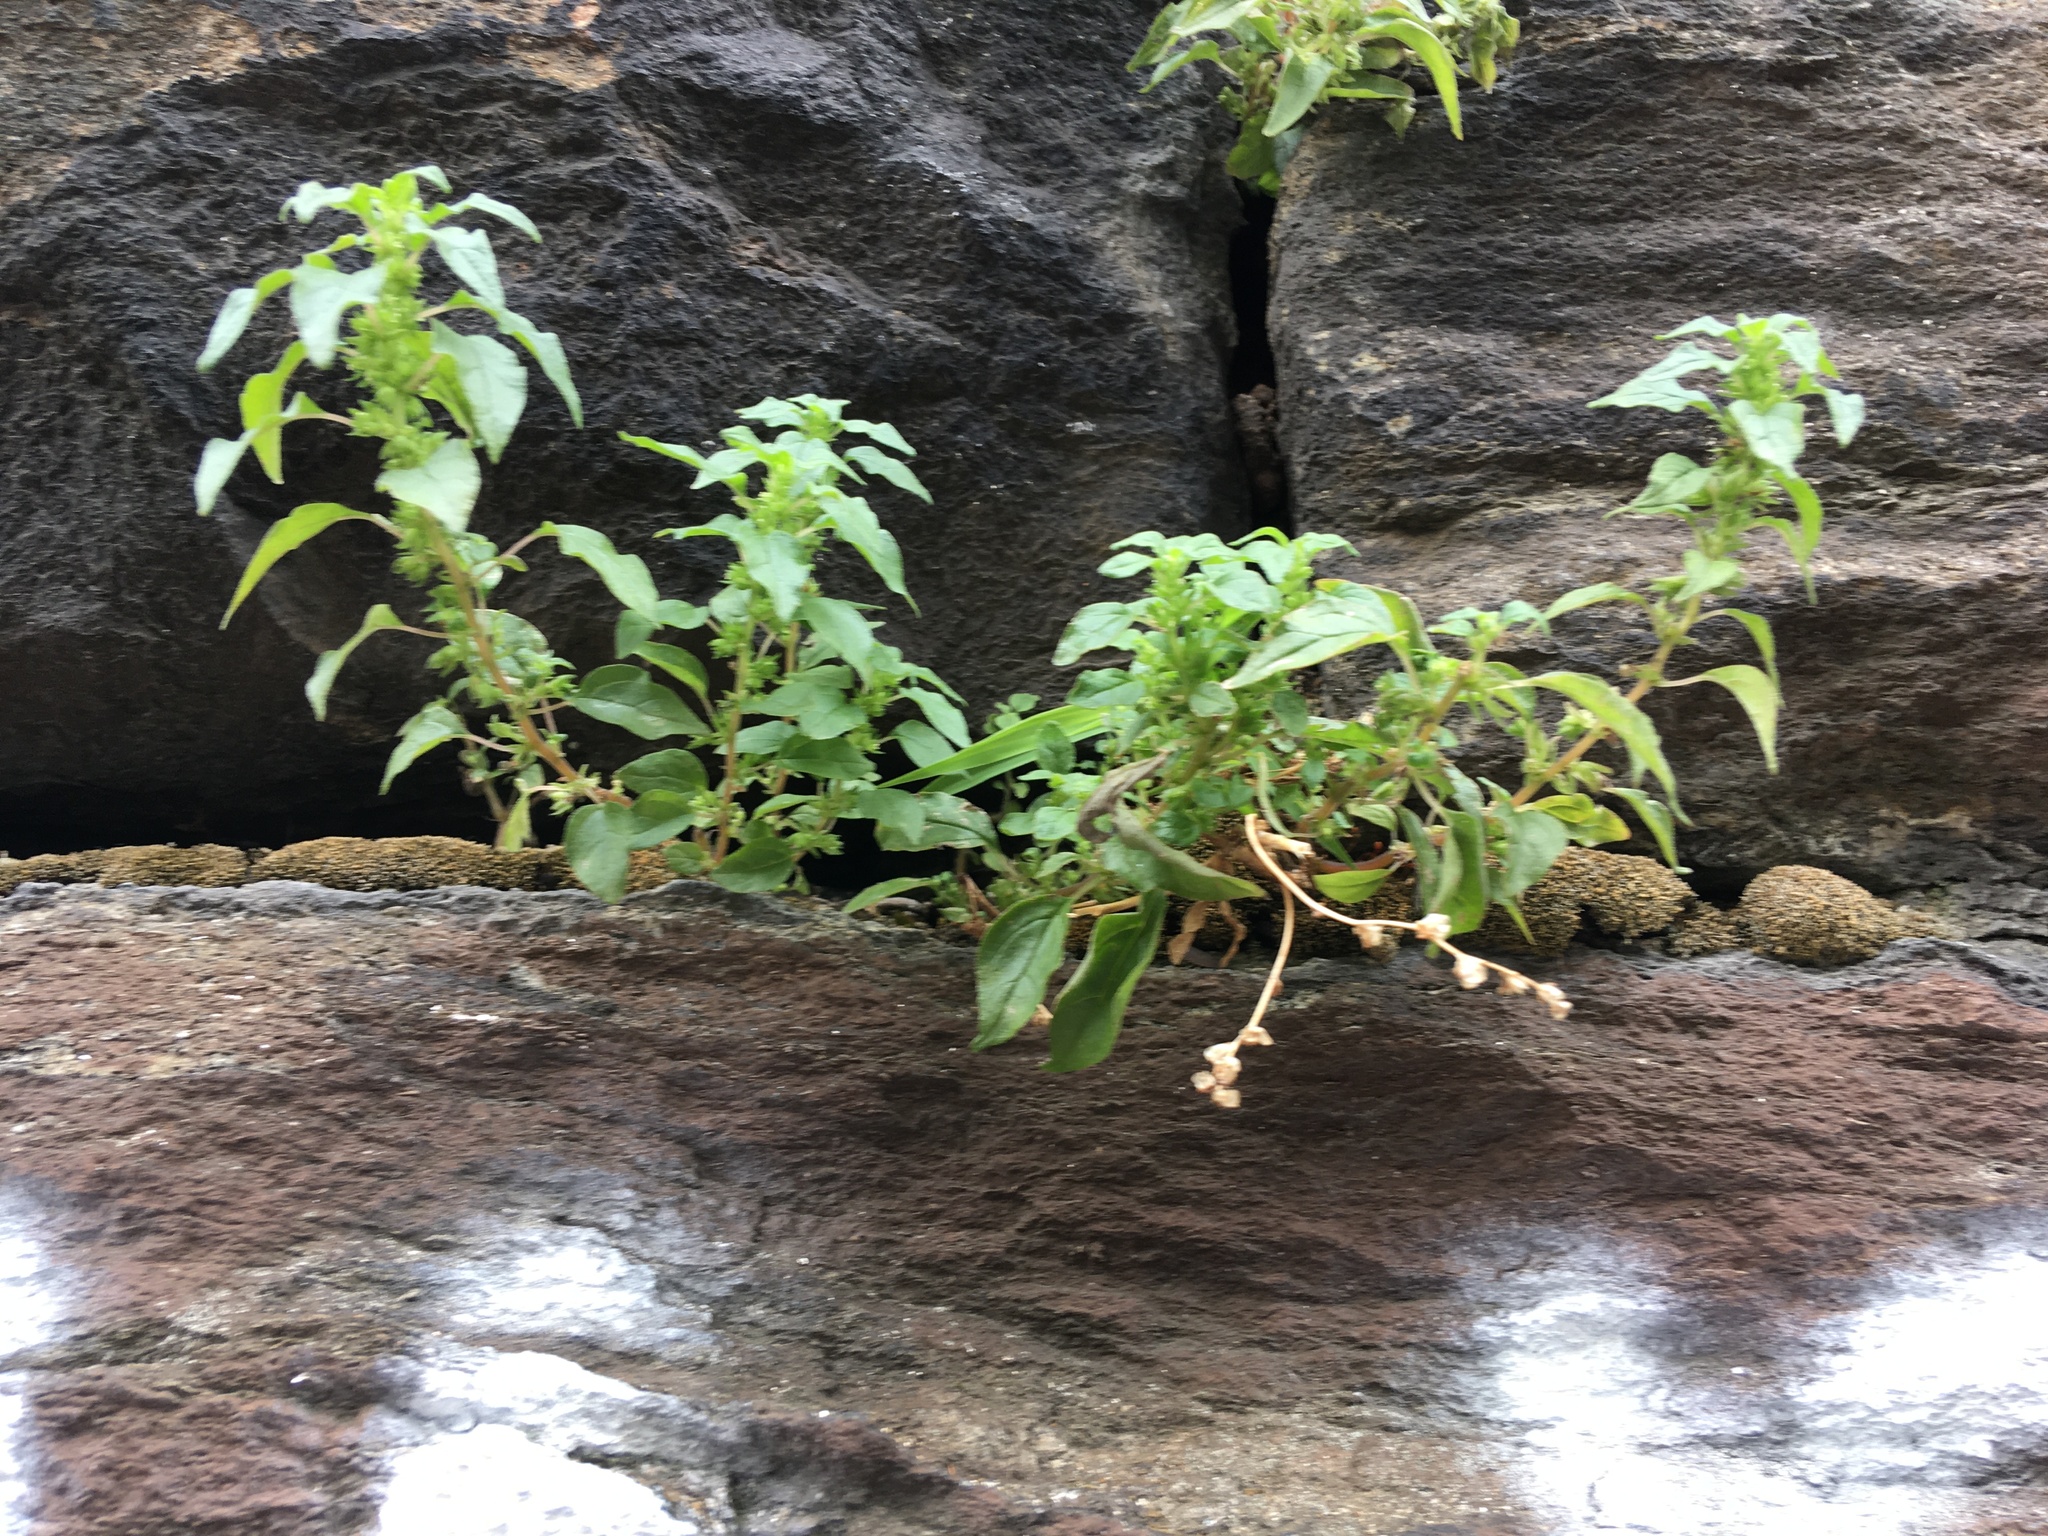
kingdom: Plantae
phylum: Tracheophyta
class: Magnoliopsida
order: Rosales
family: Urticaceae
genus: Parietaria
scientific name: Parietaria pensylvanica
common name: Pennsylvania pellitory
